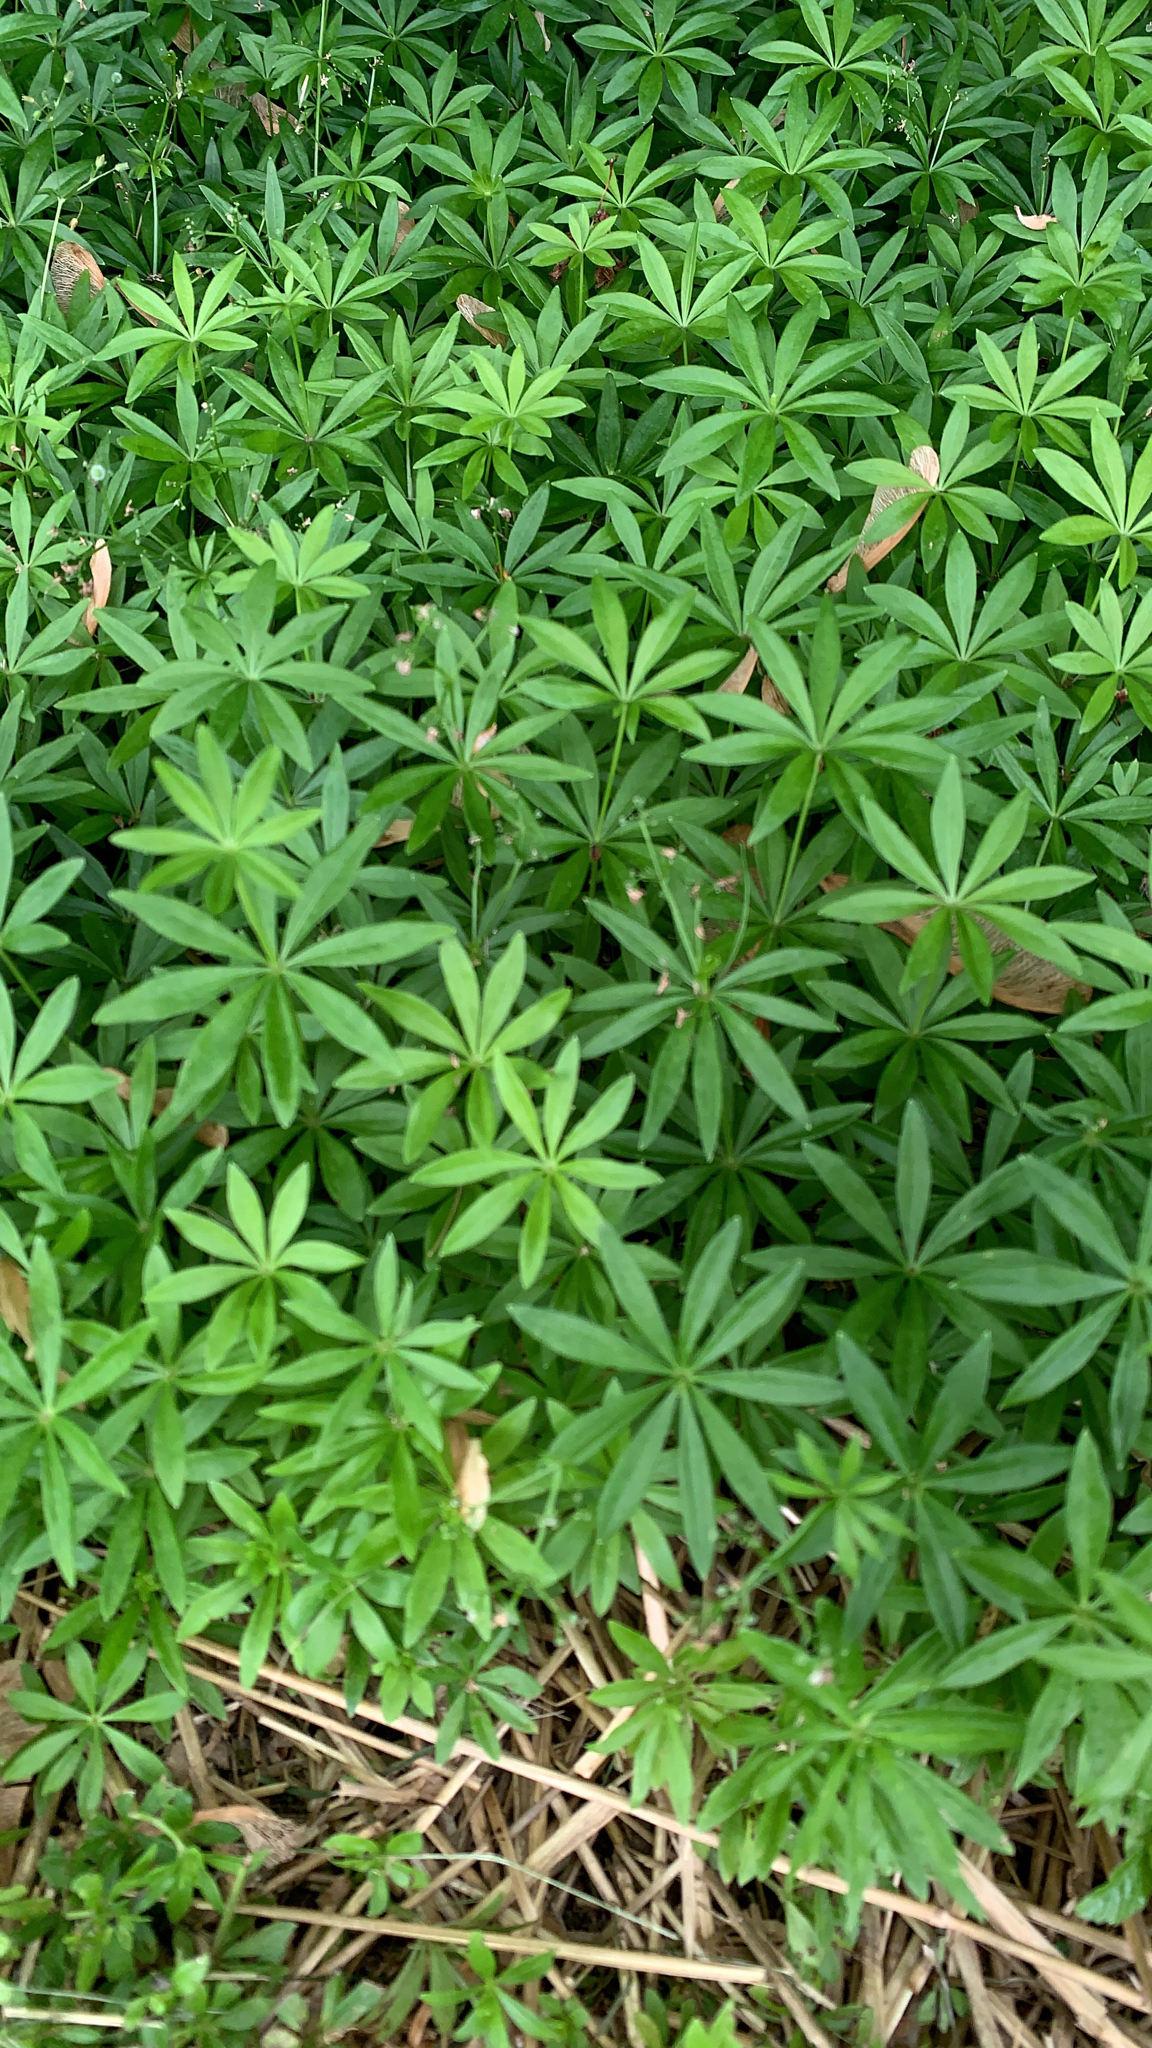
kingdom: Plantae
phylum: Tracheophyta
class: Magnoliopsida
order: Gentianales
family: Rubiaceae
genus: Galium
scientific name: Galium odoratum
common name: Sweet woodruff
